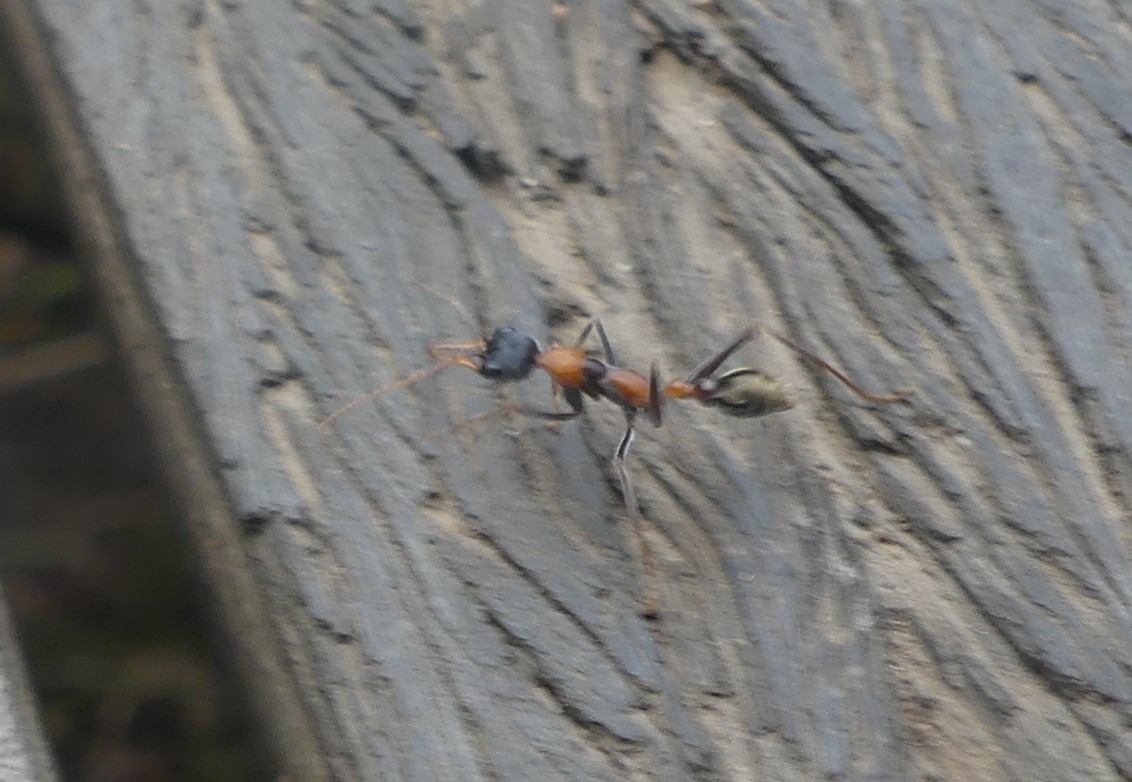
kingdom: Animalia
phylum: Arthropoda
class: Insecta
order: Hymenoptera
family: Formicidae
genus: Myrmecia
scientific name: Myrmecia nigrocincta
